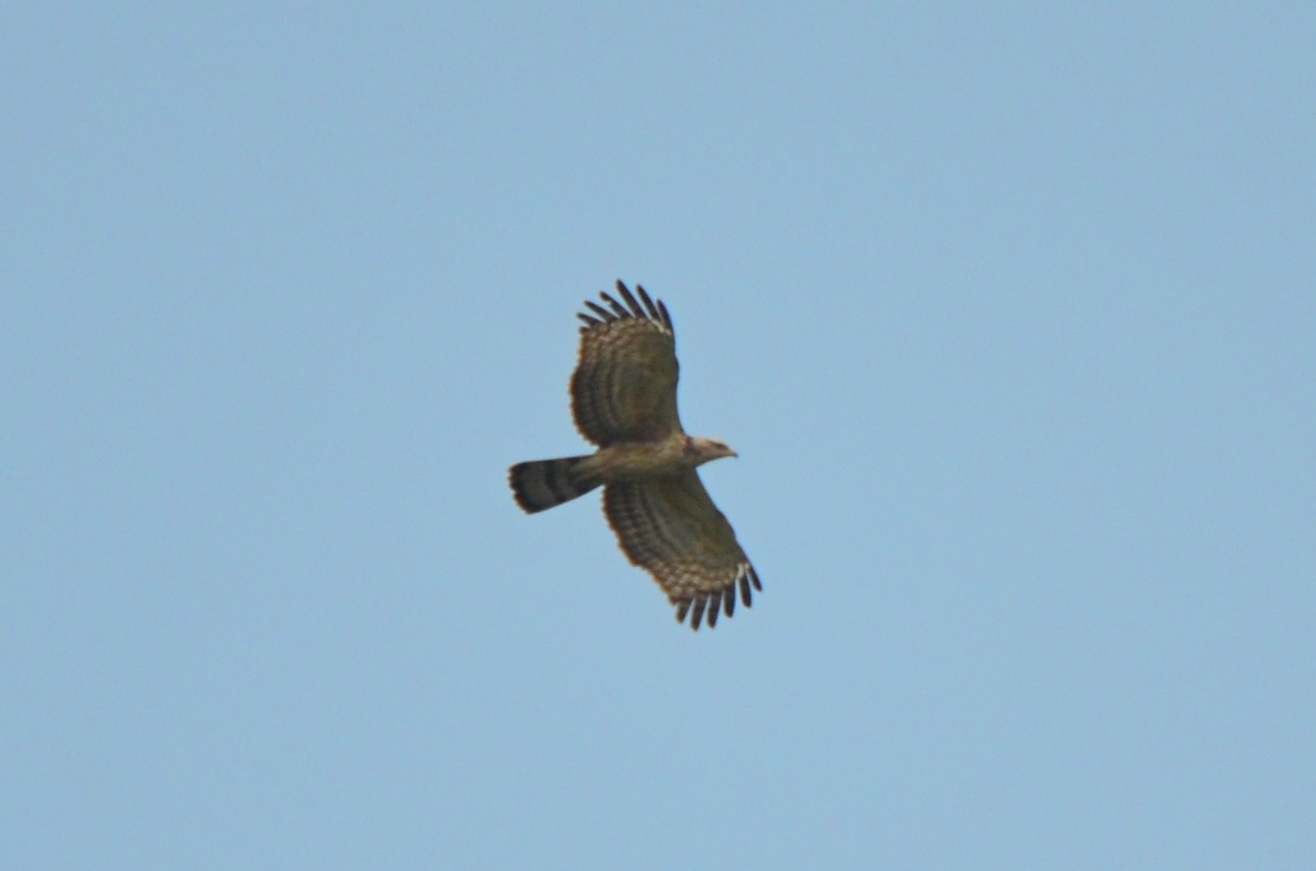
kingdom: Animalia
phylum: Chordata
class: Aves
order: Accipitriformes
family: Accipitridae
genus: Pernis
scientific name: Pernis ptilorhynchus
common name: Crested honey buzzard
